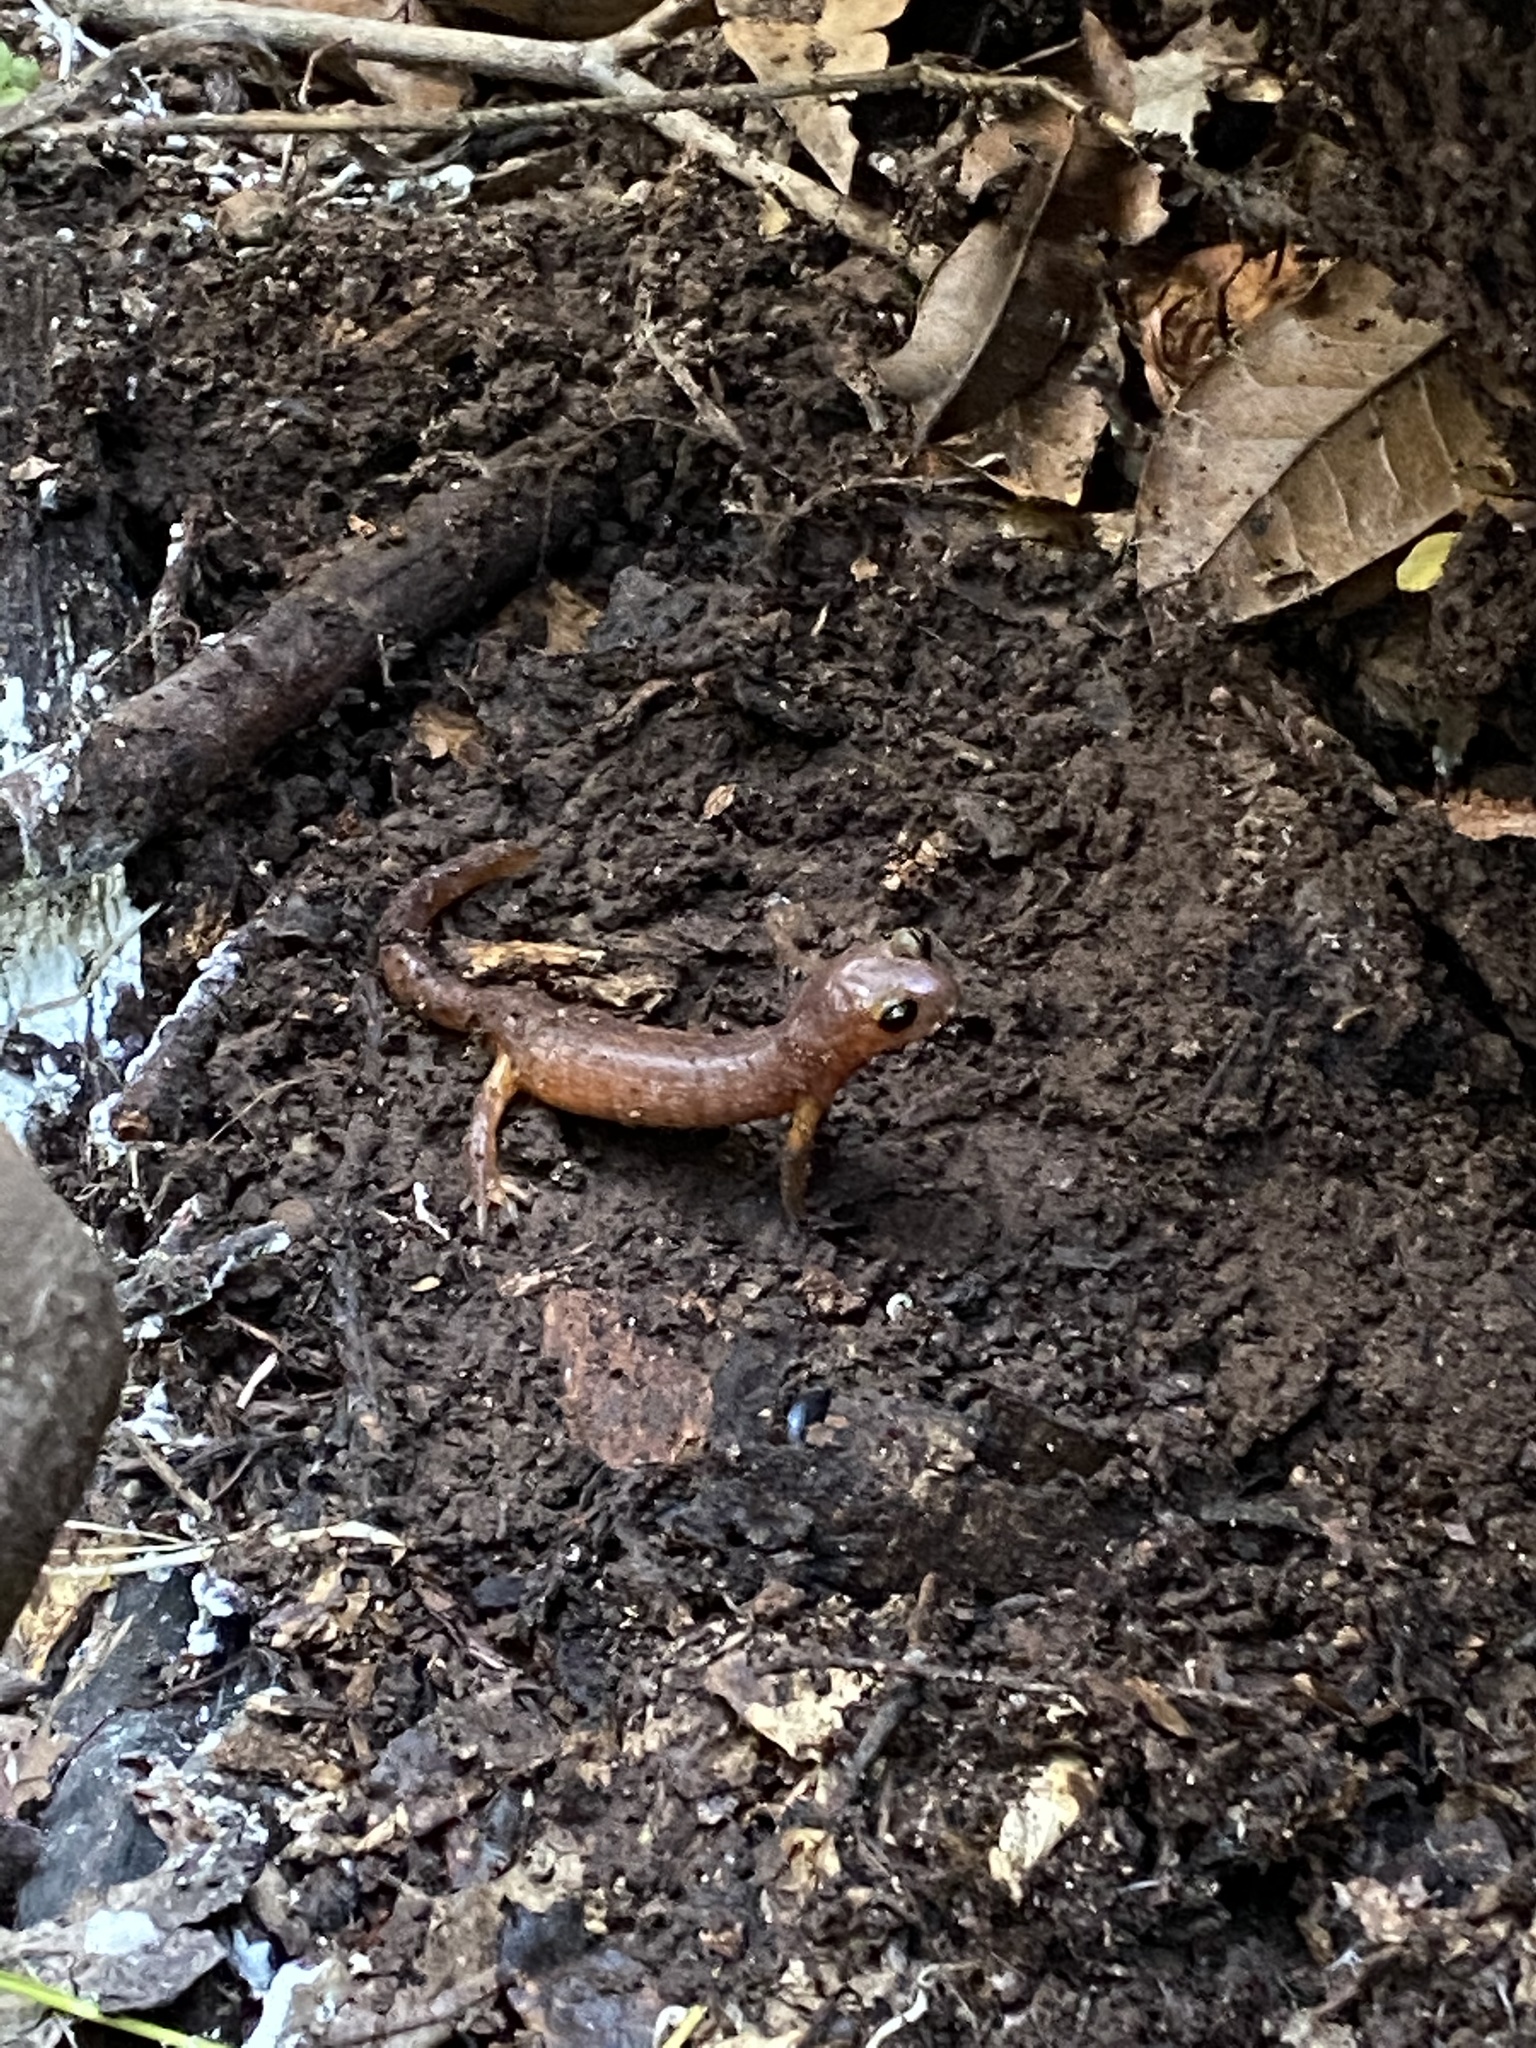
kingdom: Animalia
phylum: Chordata
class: Amphibia
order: Caudata
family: Plethodontidae
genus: Ensatina
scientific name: Ensatina eschscholtzii
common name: Ensatina
